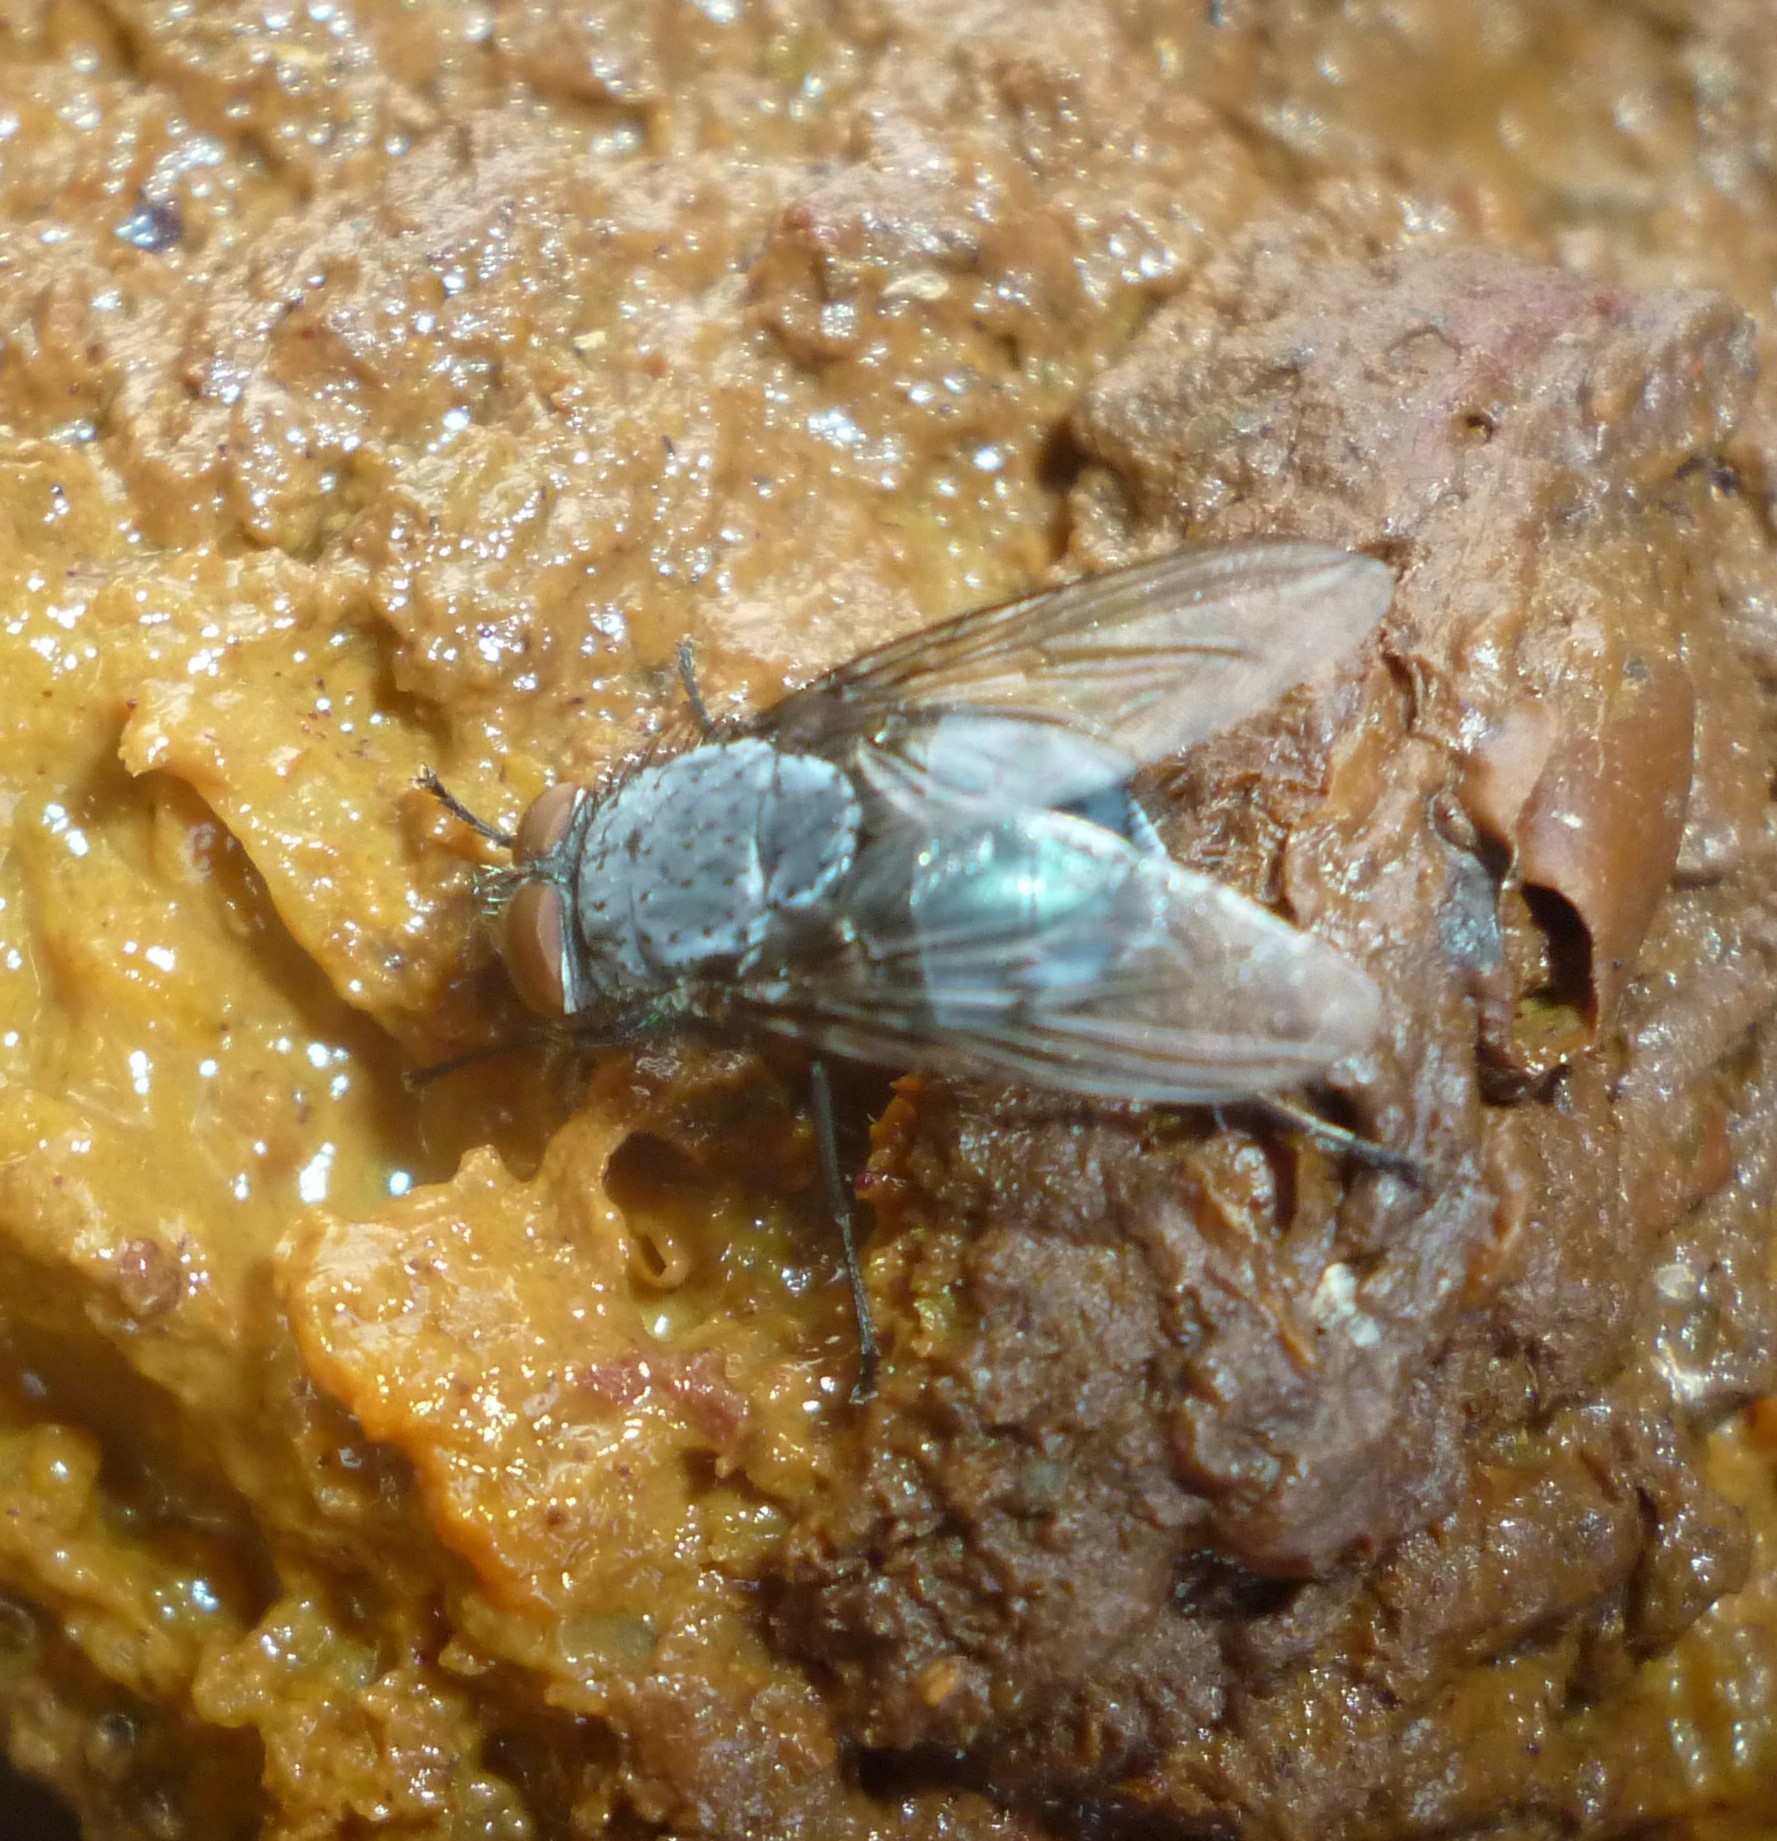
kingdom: Animalia
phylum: Arthropoda
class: Insecta
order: Diptera
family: Calliphoridae
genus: Calliphora
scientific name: Calliphora vicina
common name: Common blow flie
